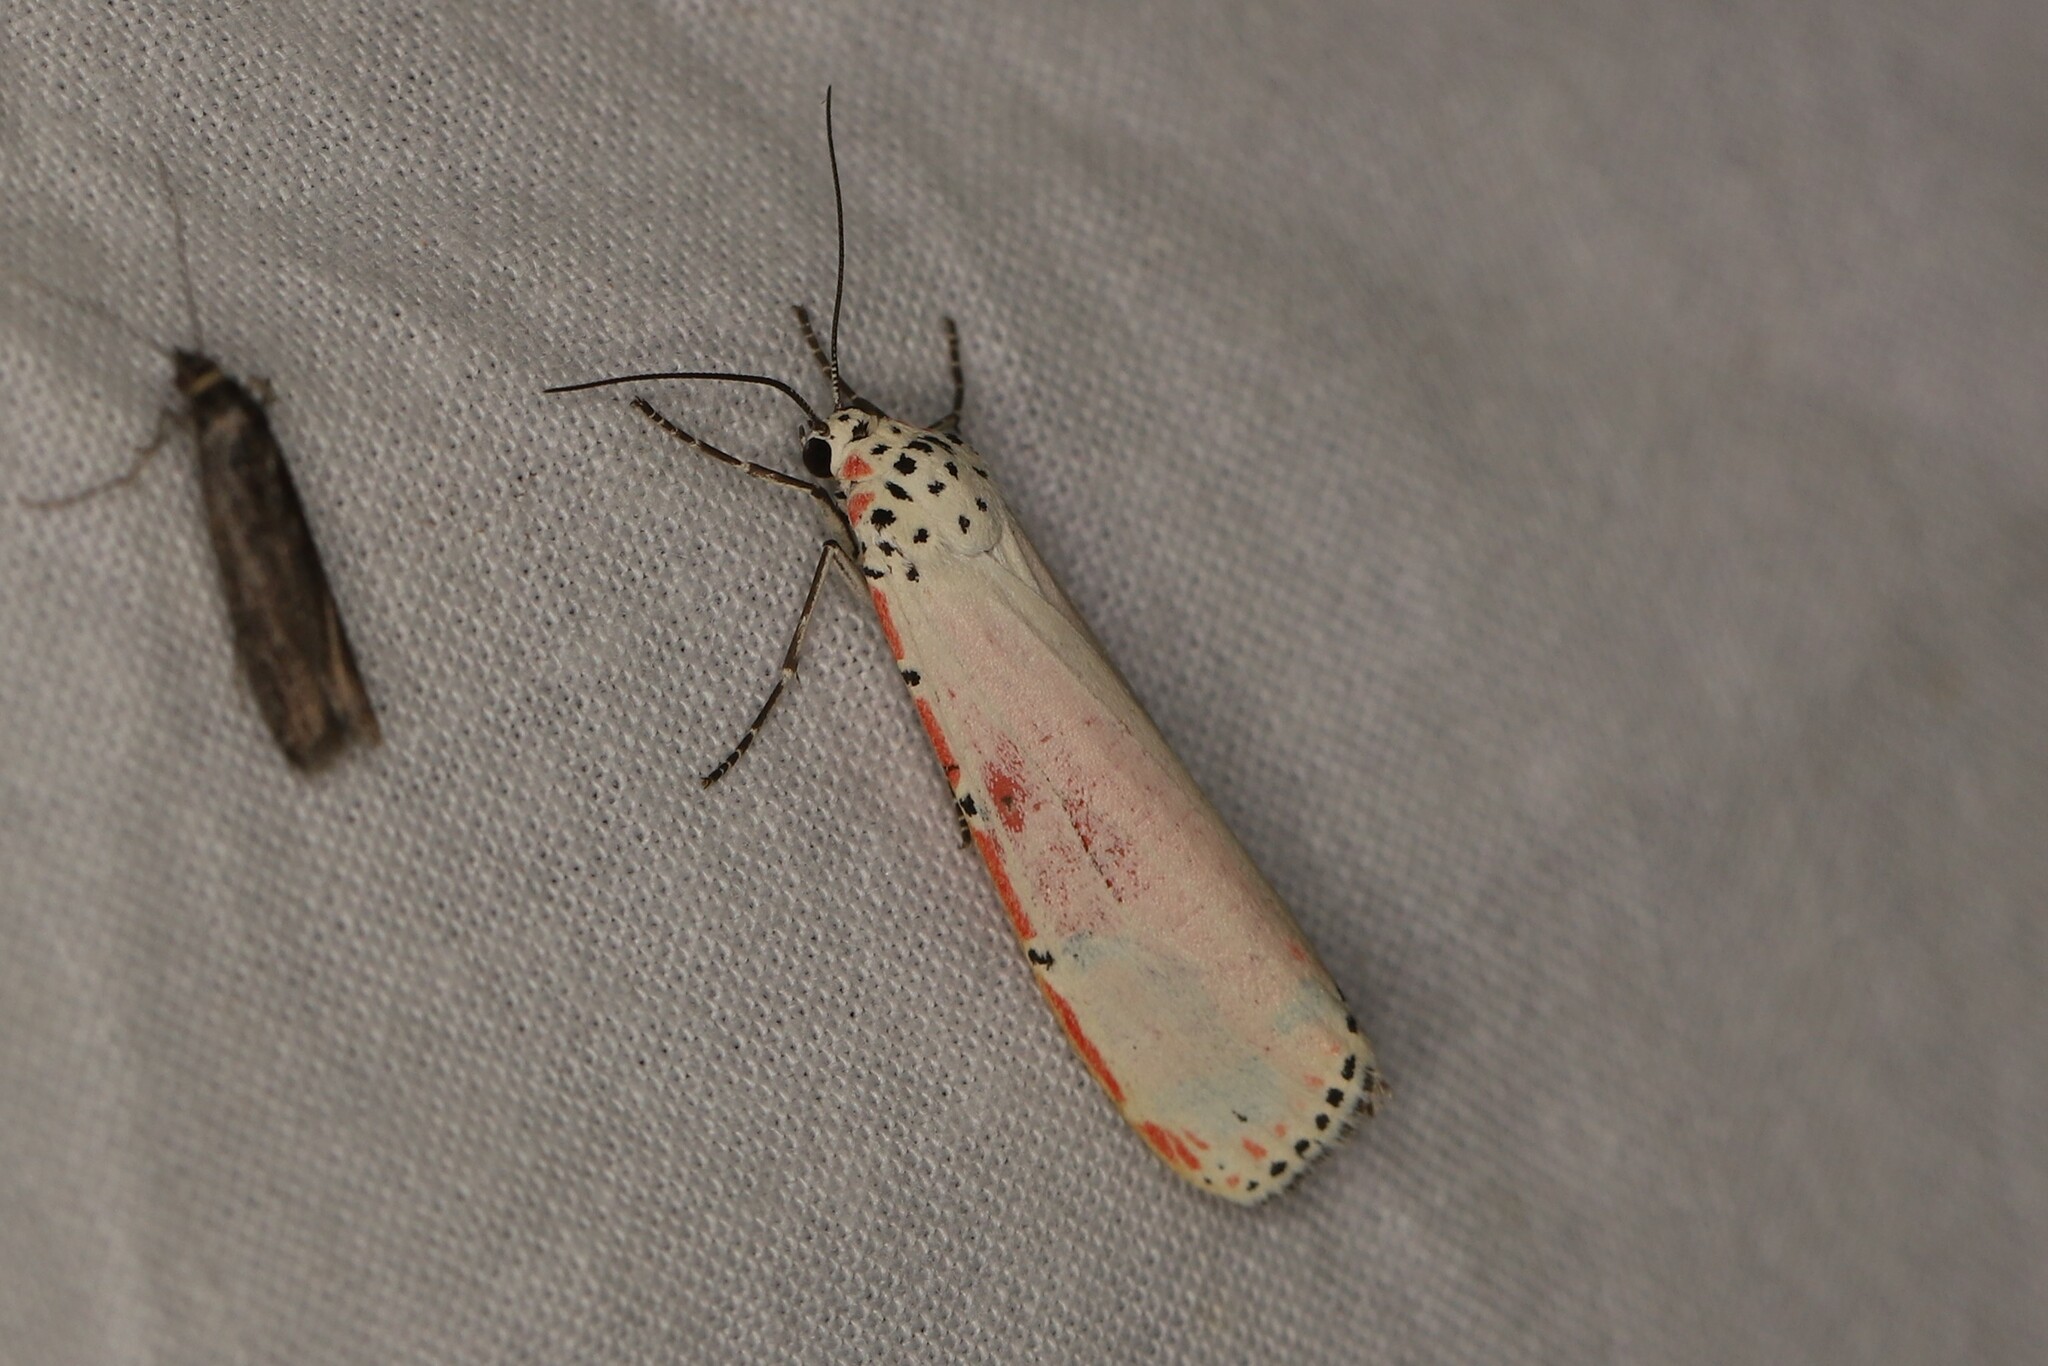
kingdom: Animalia
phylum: Arthropoda
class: Insecta
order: Lepidoptera
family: Erebidae
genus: Utetheisa
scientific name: Utetheisa ornatrix
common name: Beautiful utetheisa
